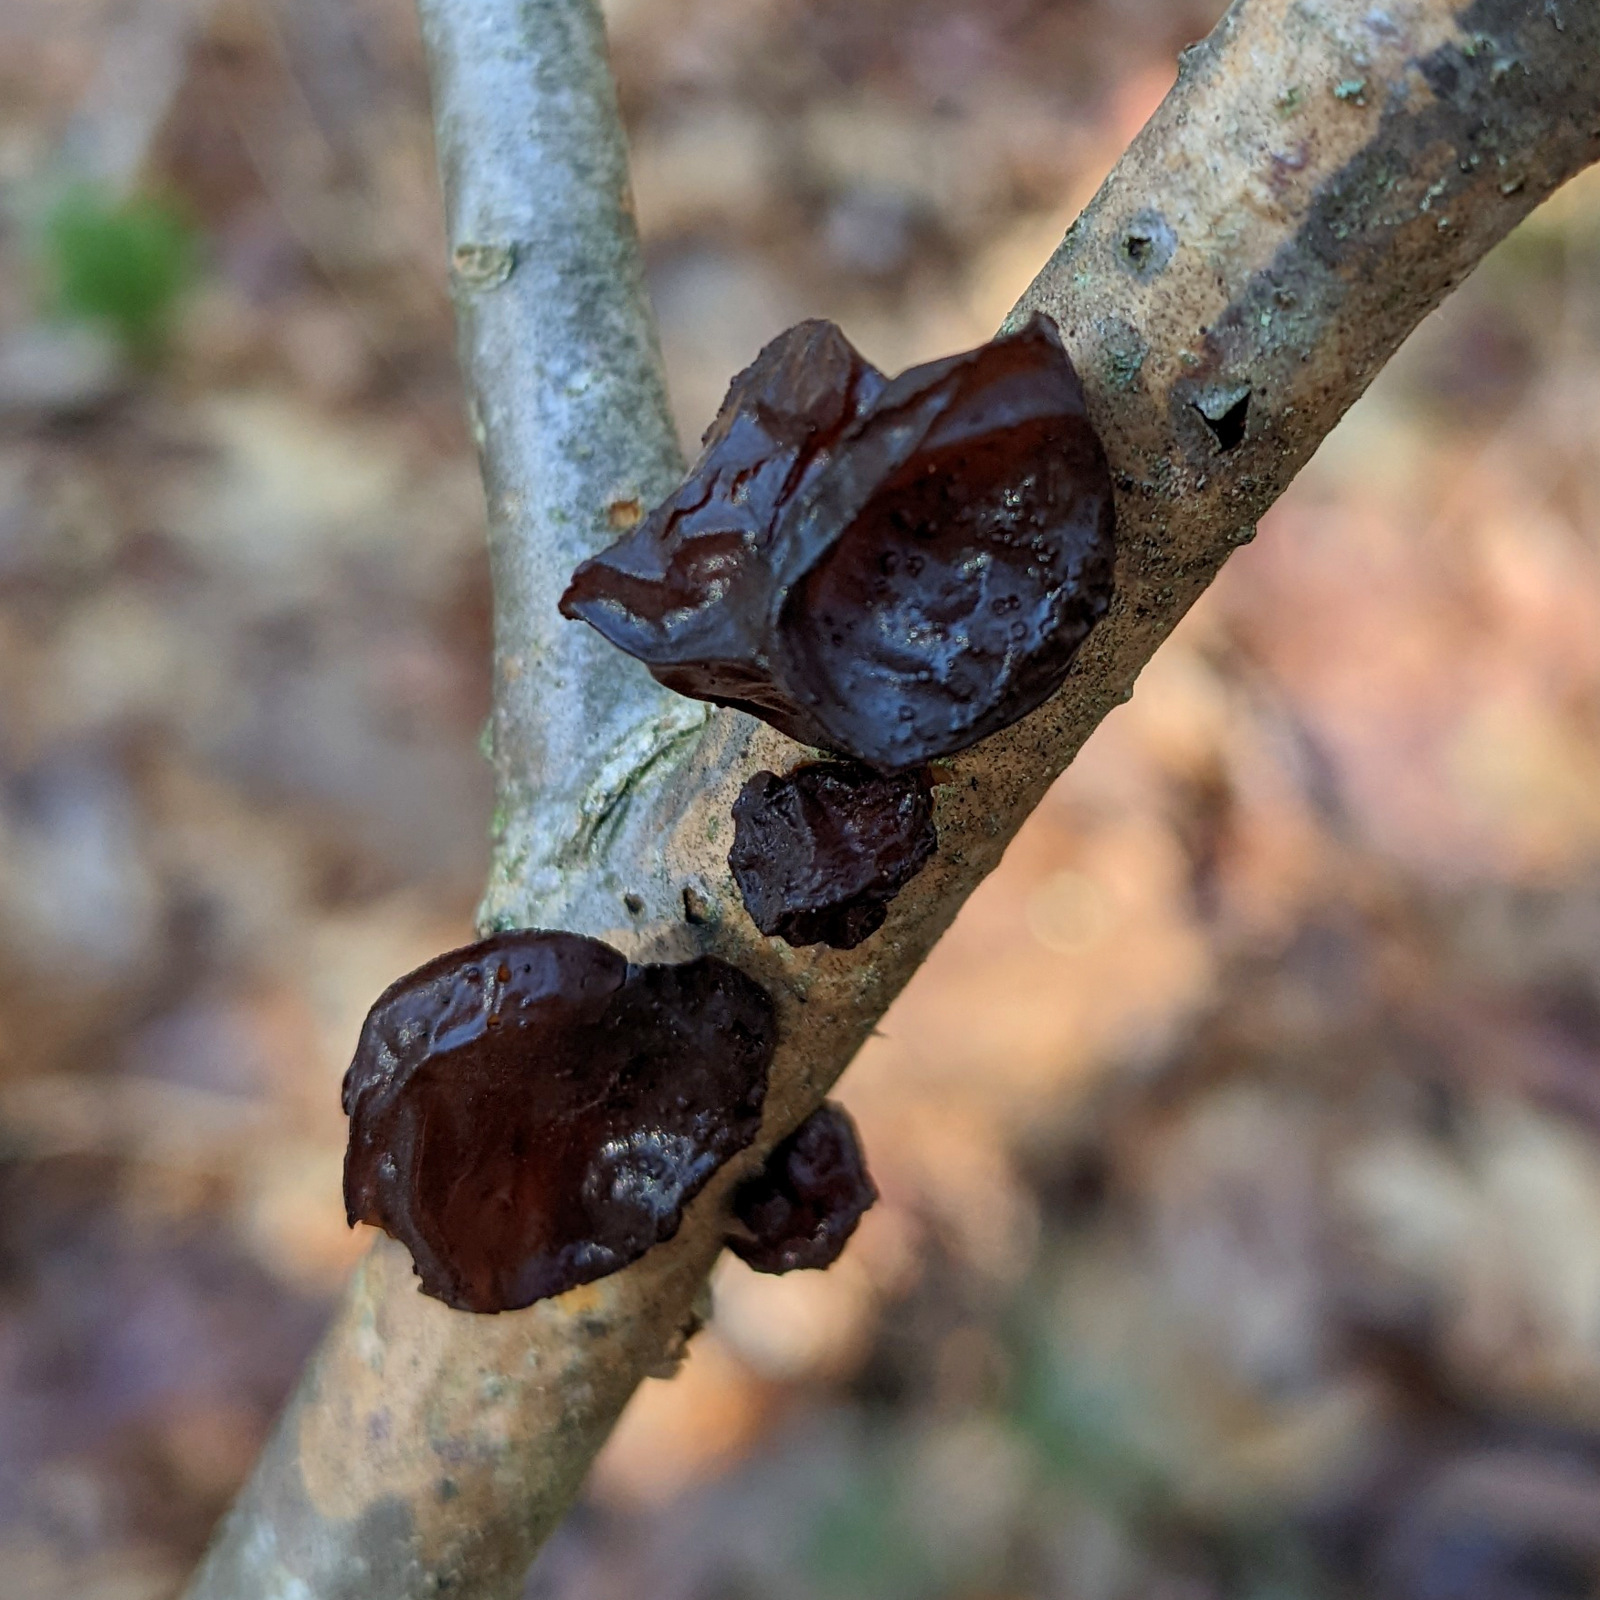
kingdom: Fungi
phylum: Basidiomycota
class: Agaricomycetes
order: Auriculariales
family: Auriculariaceae
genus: Exidia
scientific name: Exidia
